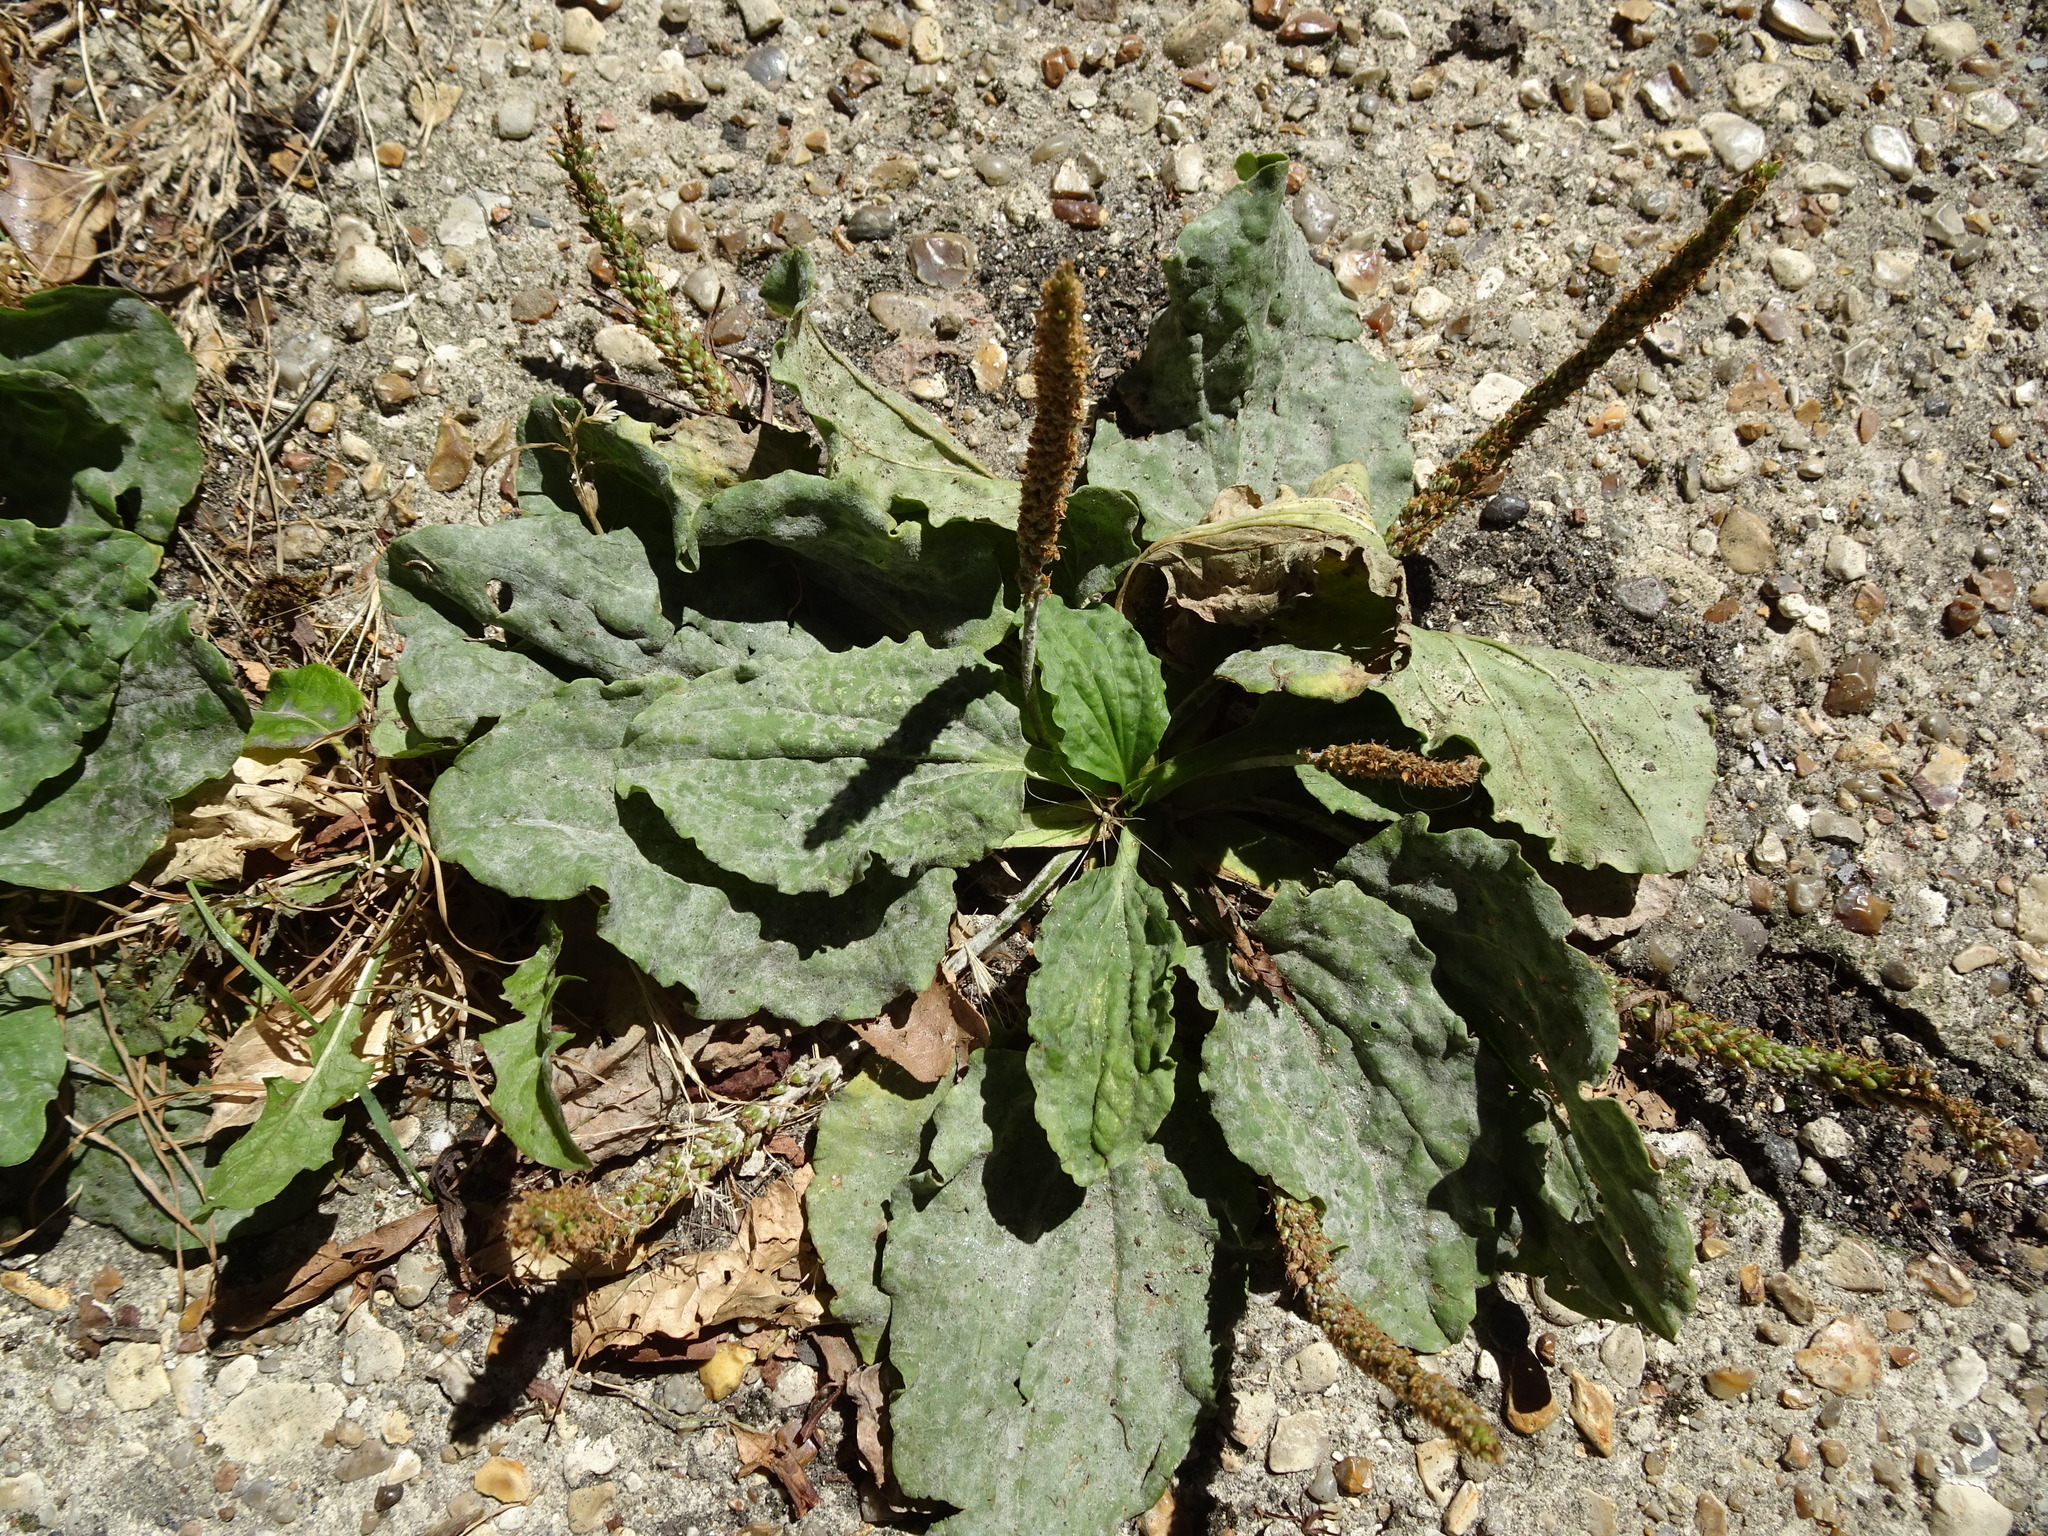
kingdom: Plantae
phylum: Tracheophyta
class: Magnoliopsida
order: Lamiales
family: Plantaginaceae
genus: Plantago
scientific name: Plantago major
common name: Common plantain
